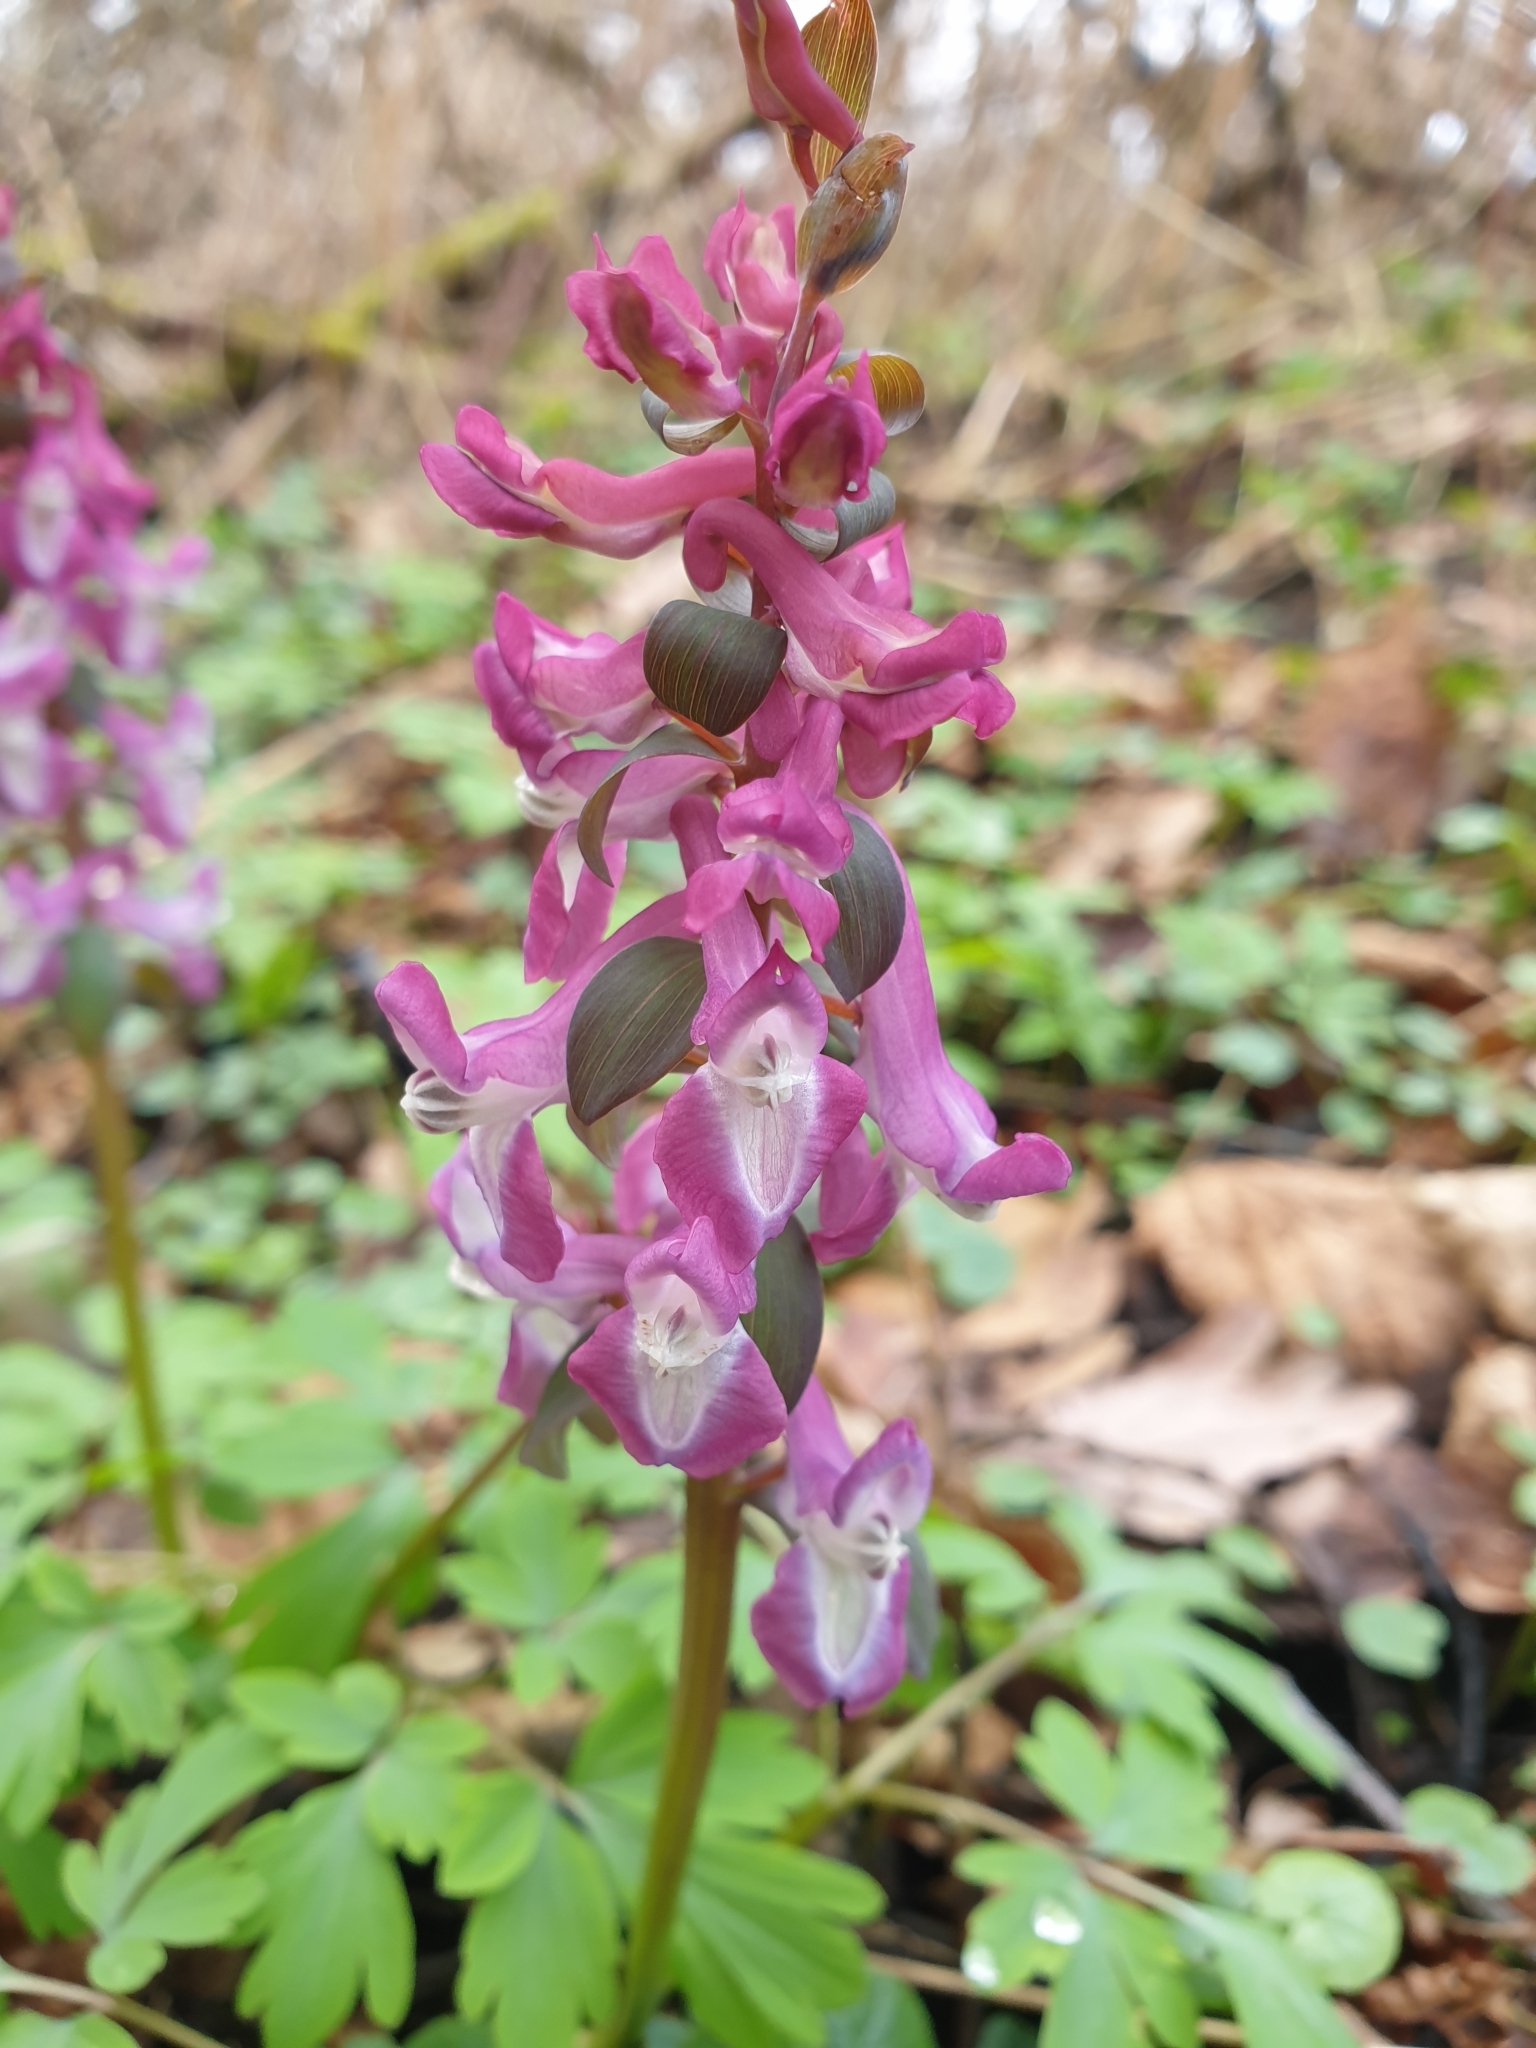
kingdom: Plantae
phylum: Tracheophyta
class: Magnoliopsida
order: Ranunculales
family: Papaveraceae
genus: Corydalis
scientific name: Corydalis cava
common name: Hollowroot
